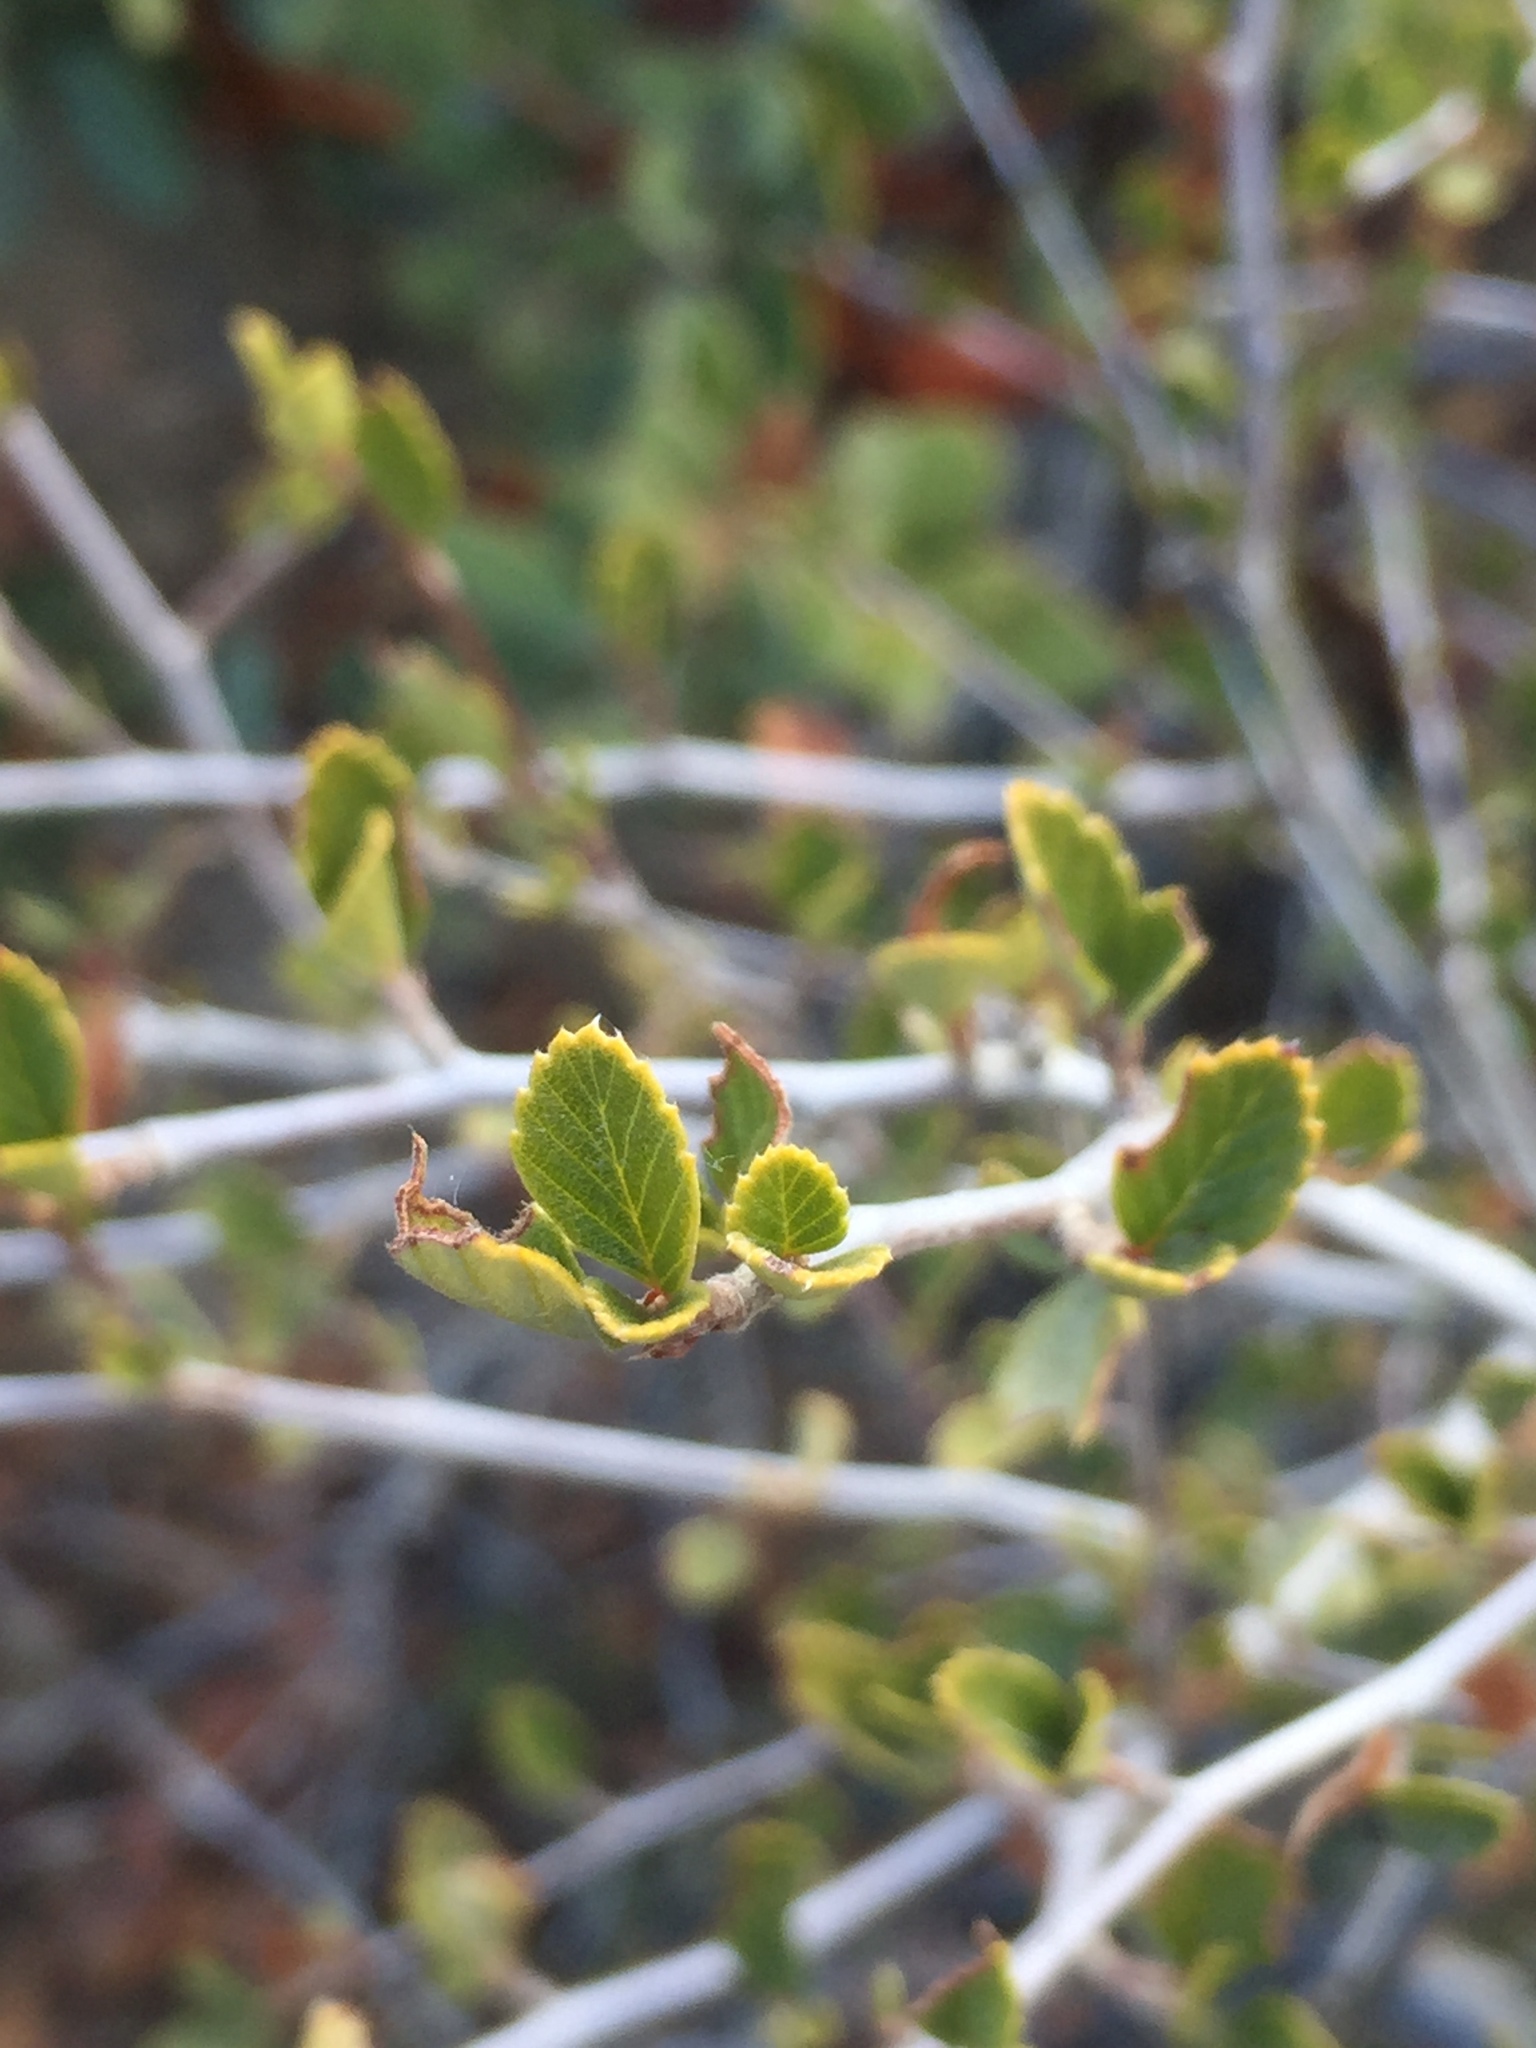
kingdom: Plantae
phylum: Tracheophyta
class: Magnoliopsida
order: Rosales
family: Rosaceae
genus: Cercocarpus
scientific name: Cercocarpus betuloides
